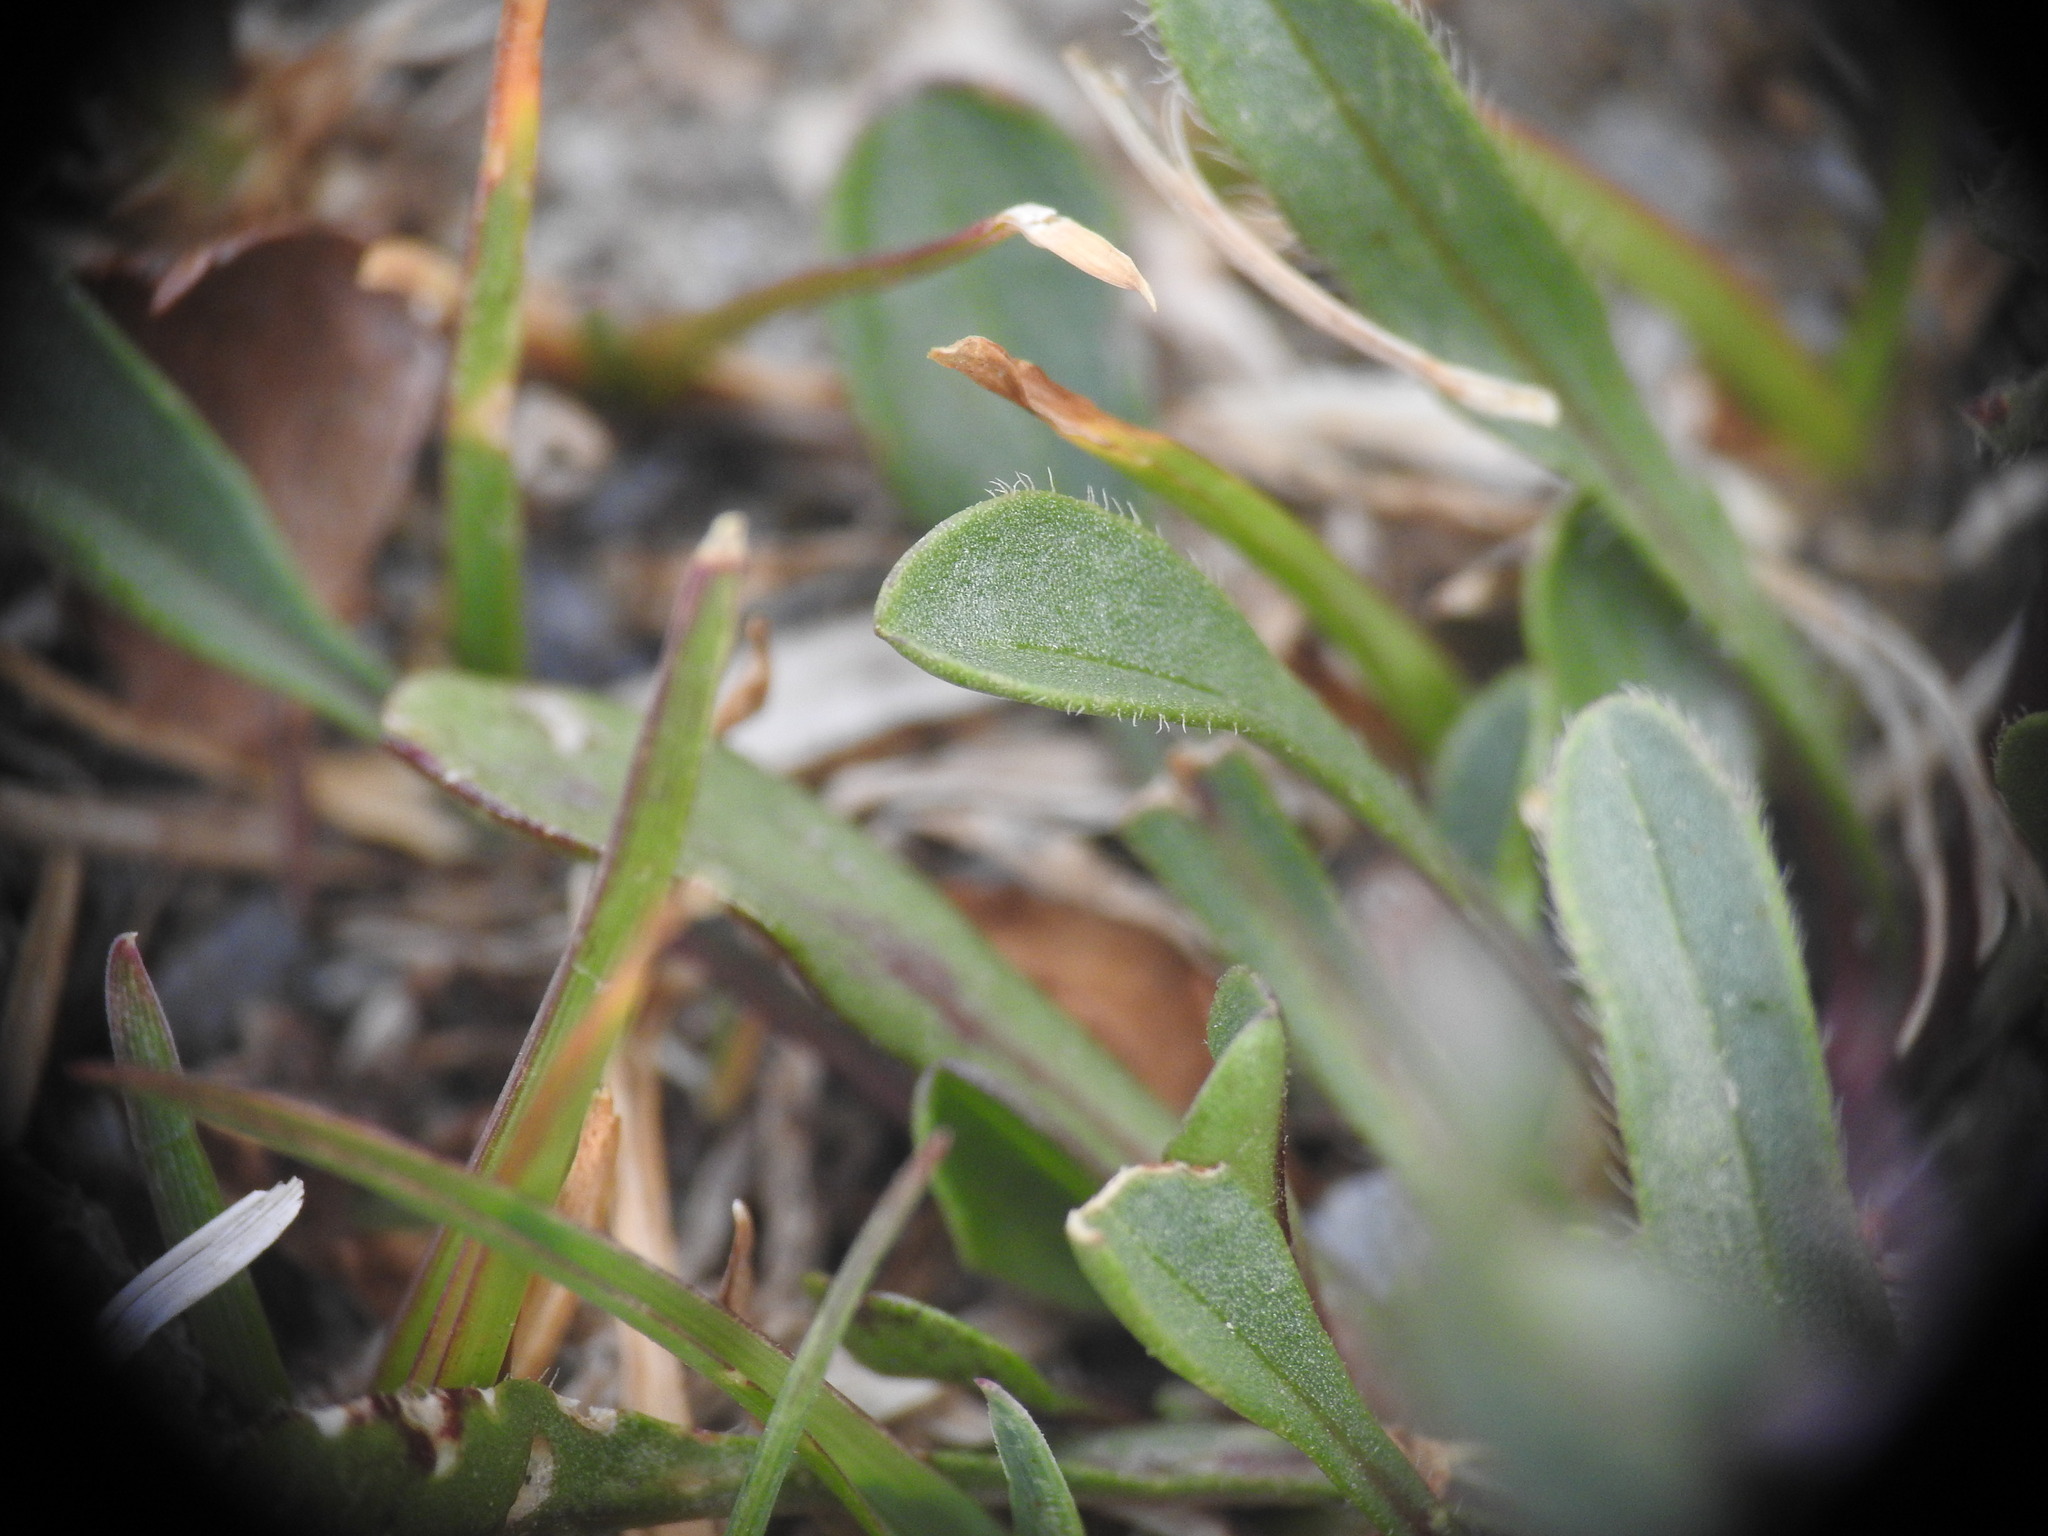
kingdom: Plantae
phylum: Tracheophyta
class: Magnoliopsida
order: Asterales
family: Asteraceae
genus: Erigeron
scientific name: Erigeron uniflorus
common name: Northern daisy
